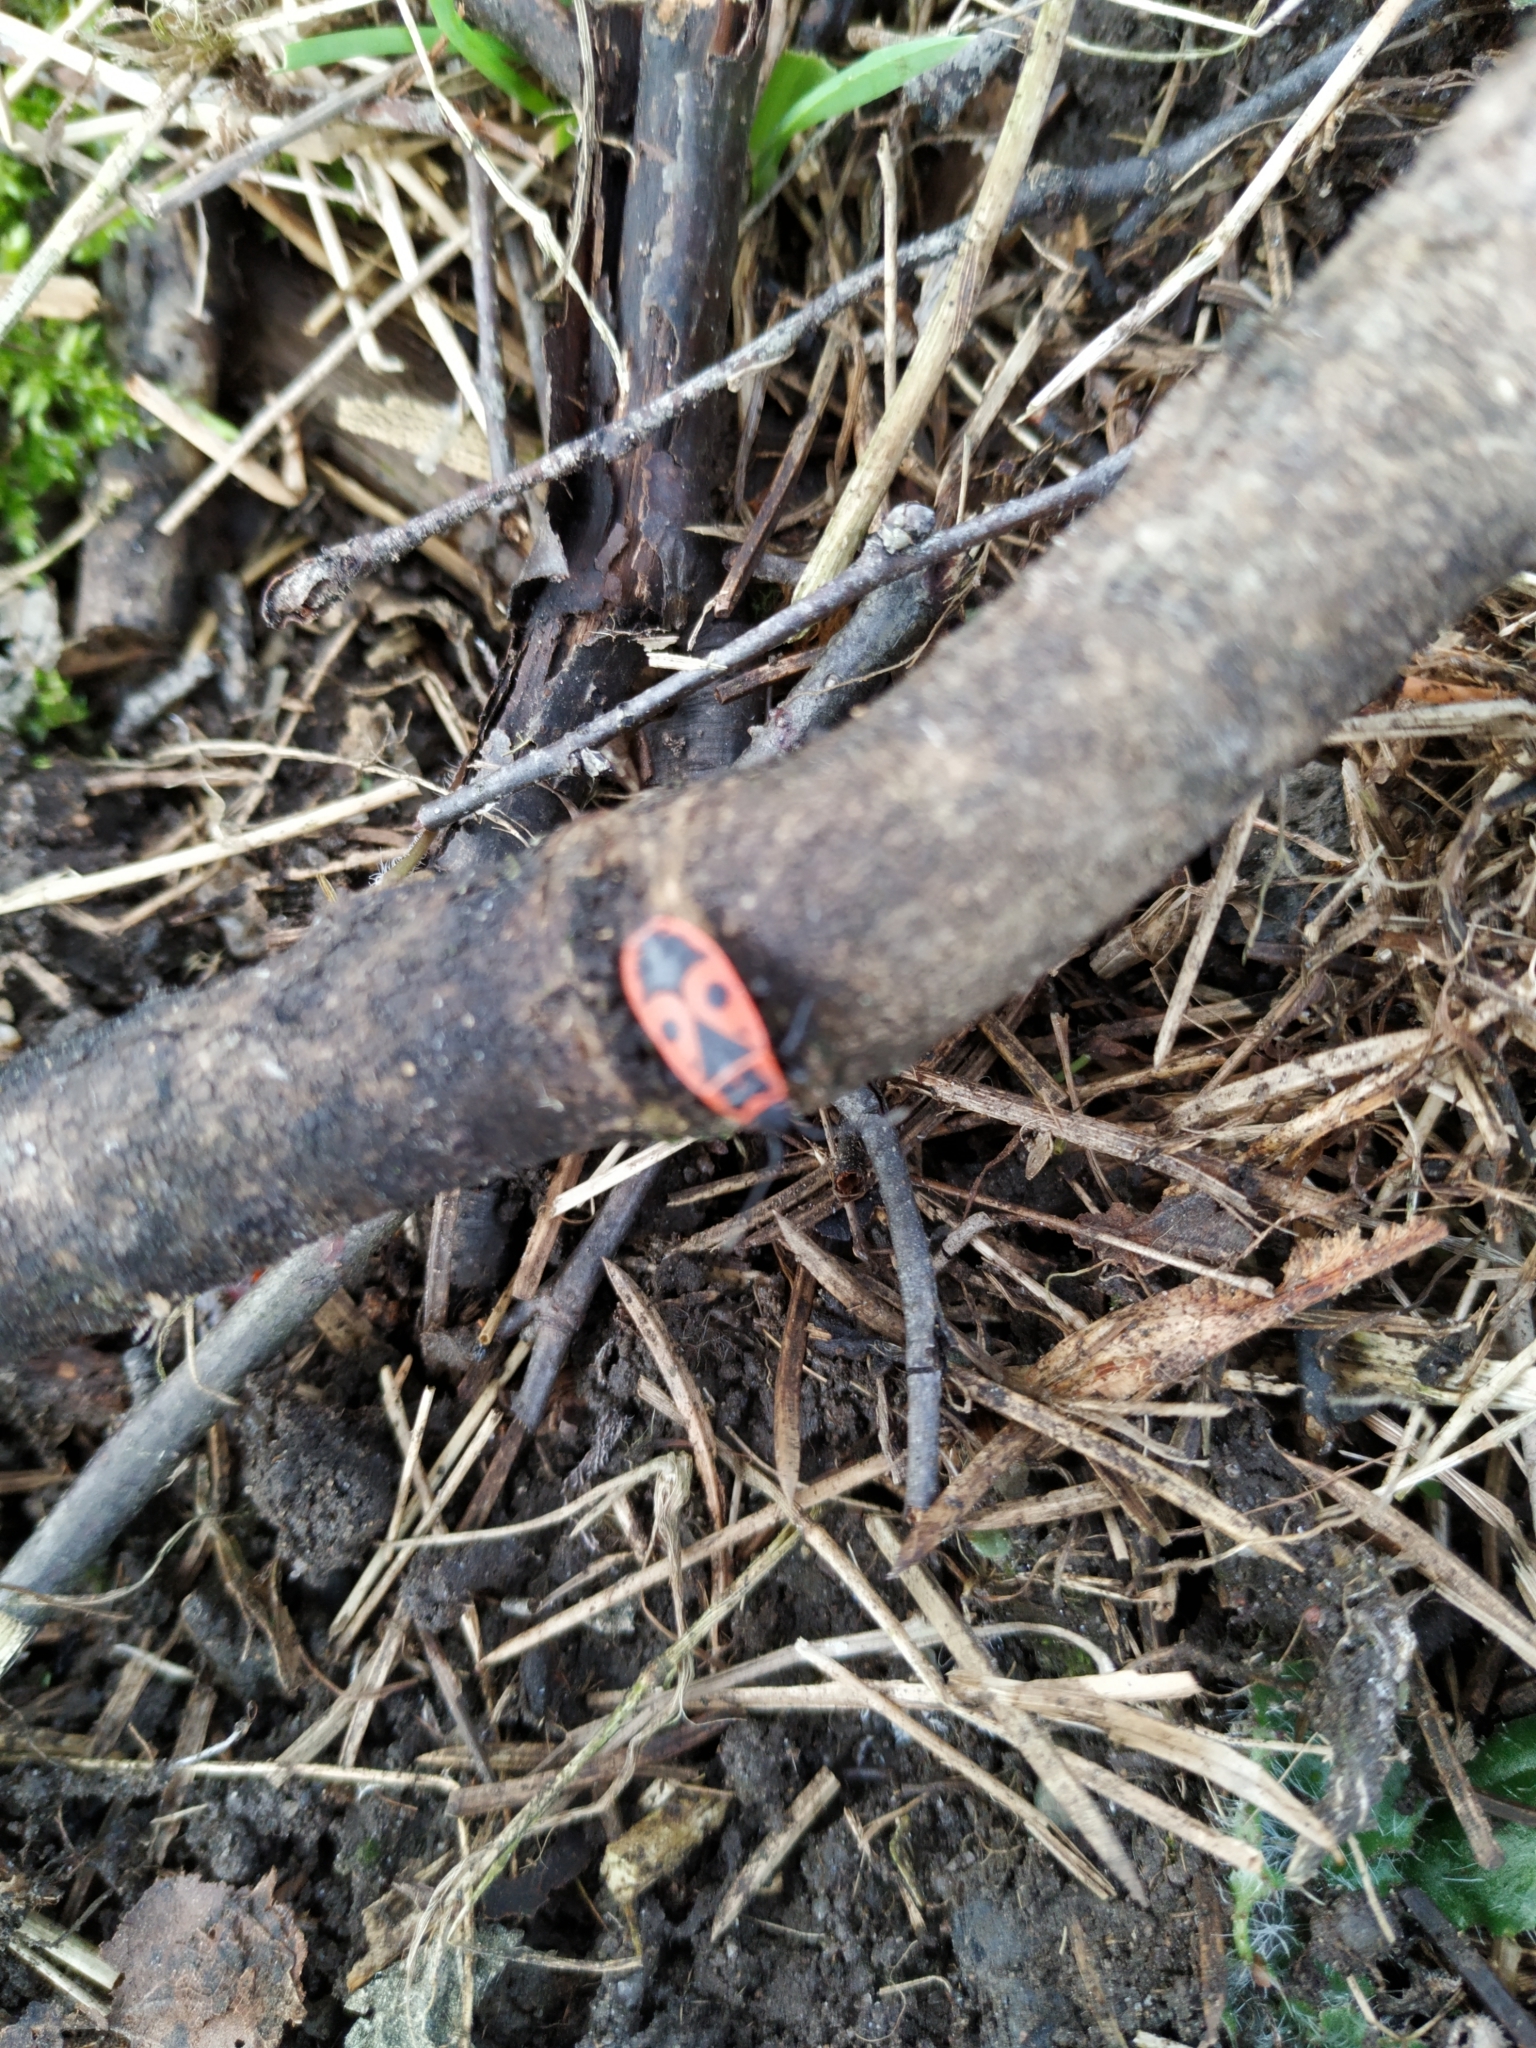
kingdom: Animalia
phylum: Arthropoda
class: Insecta
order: Hemiptera
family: Pyrrhocoridae
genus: Pyrrhocoris
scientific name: Pyrrhocoris apterus
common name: Firebug
